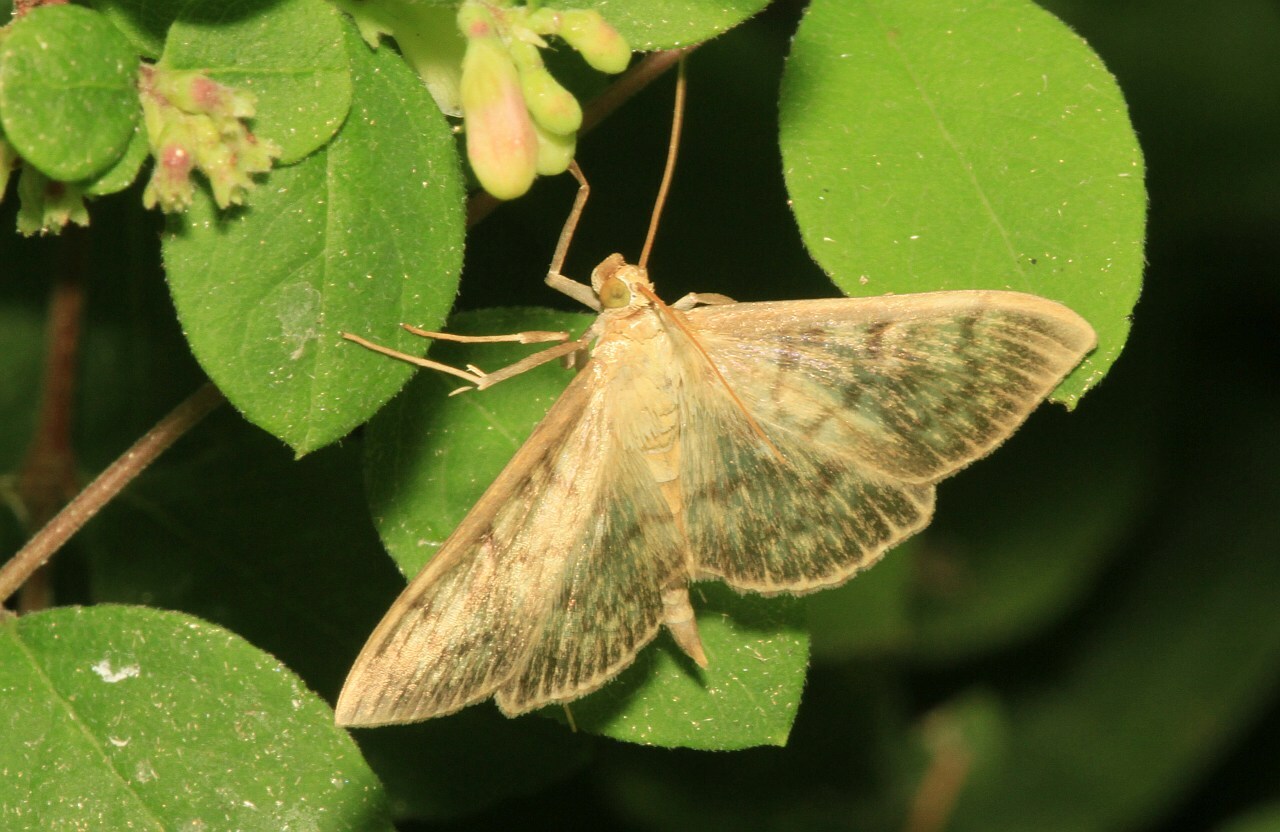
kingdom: Animalia
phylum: Arthropoda
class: Insecta
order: Lepidoptera
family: Crambidae
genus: Patania
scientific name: Patania ruralis
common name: Mother of pearl
